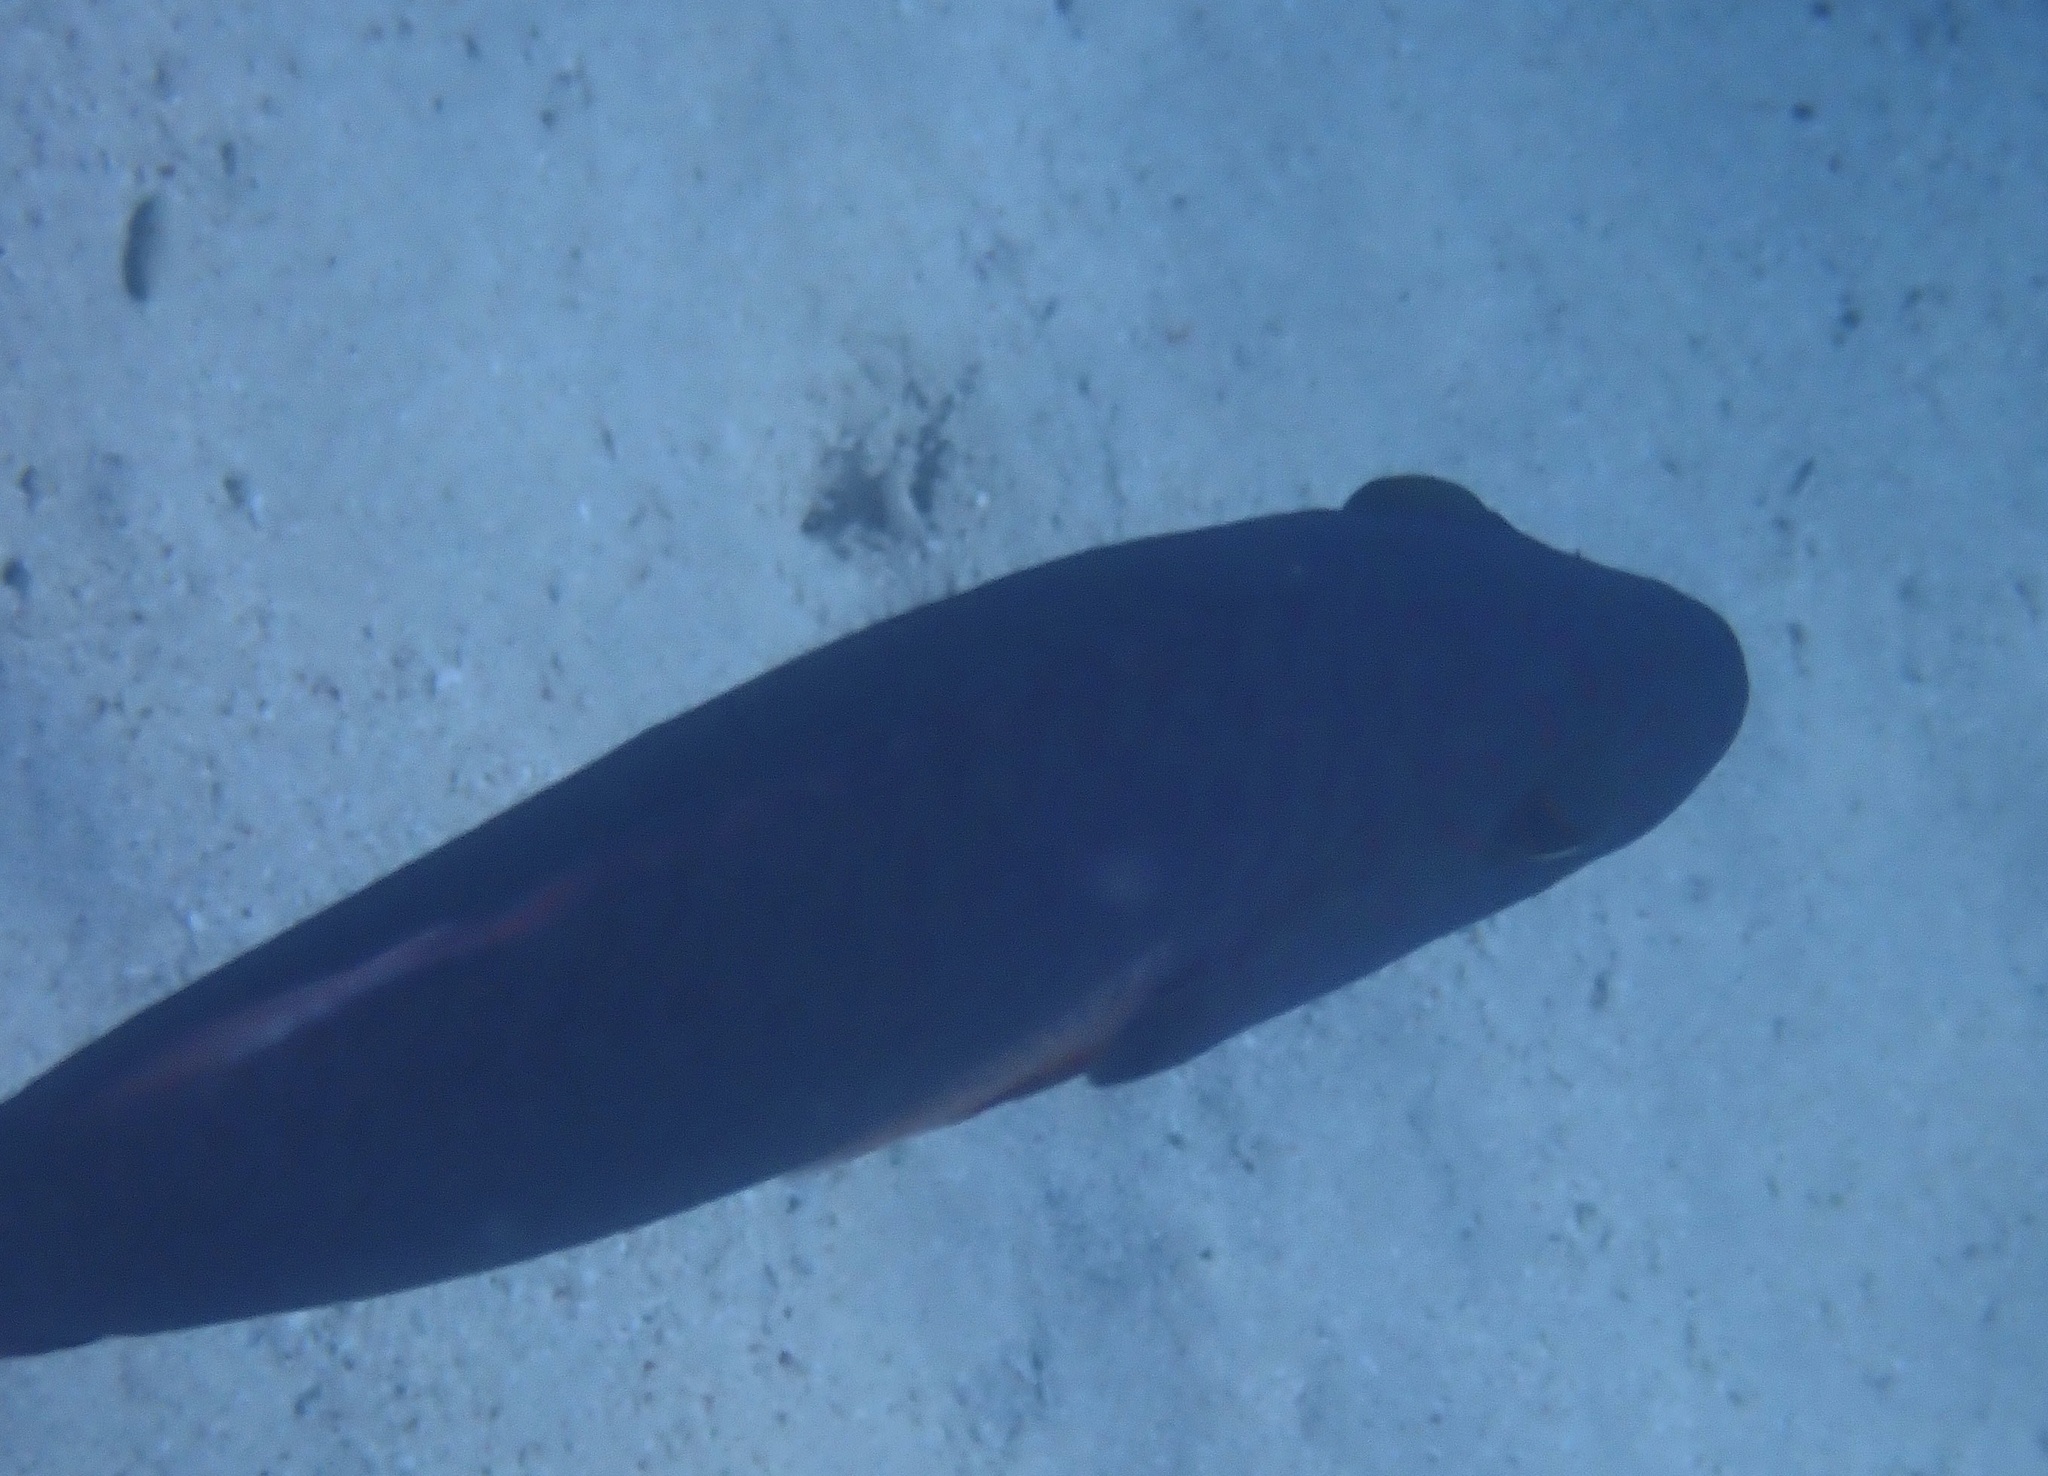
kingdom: Animalia
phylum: Chordata
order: Perciformes
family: Scaridae
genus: Calotomus
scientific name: Calotomus viridescens
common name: Dotted parrotfish
